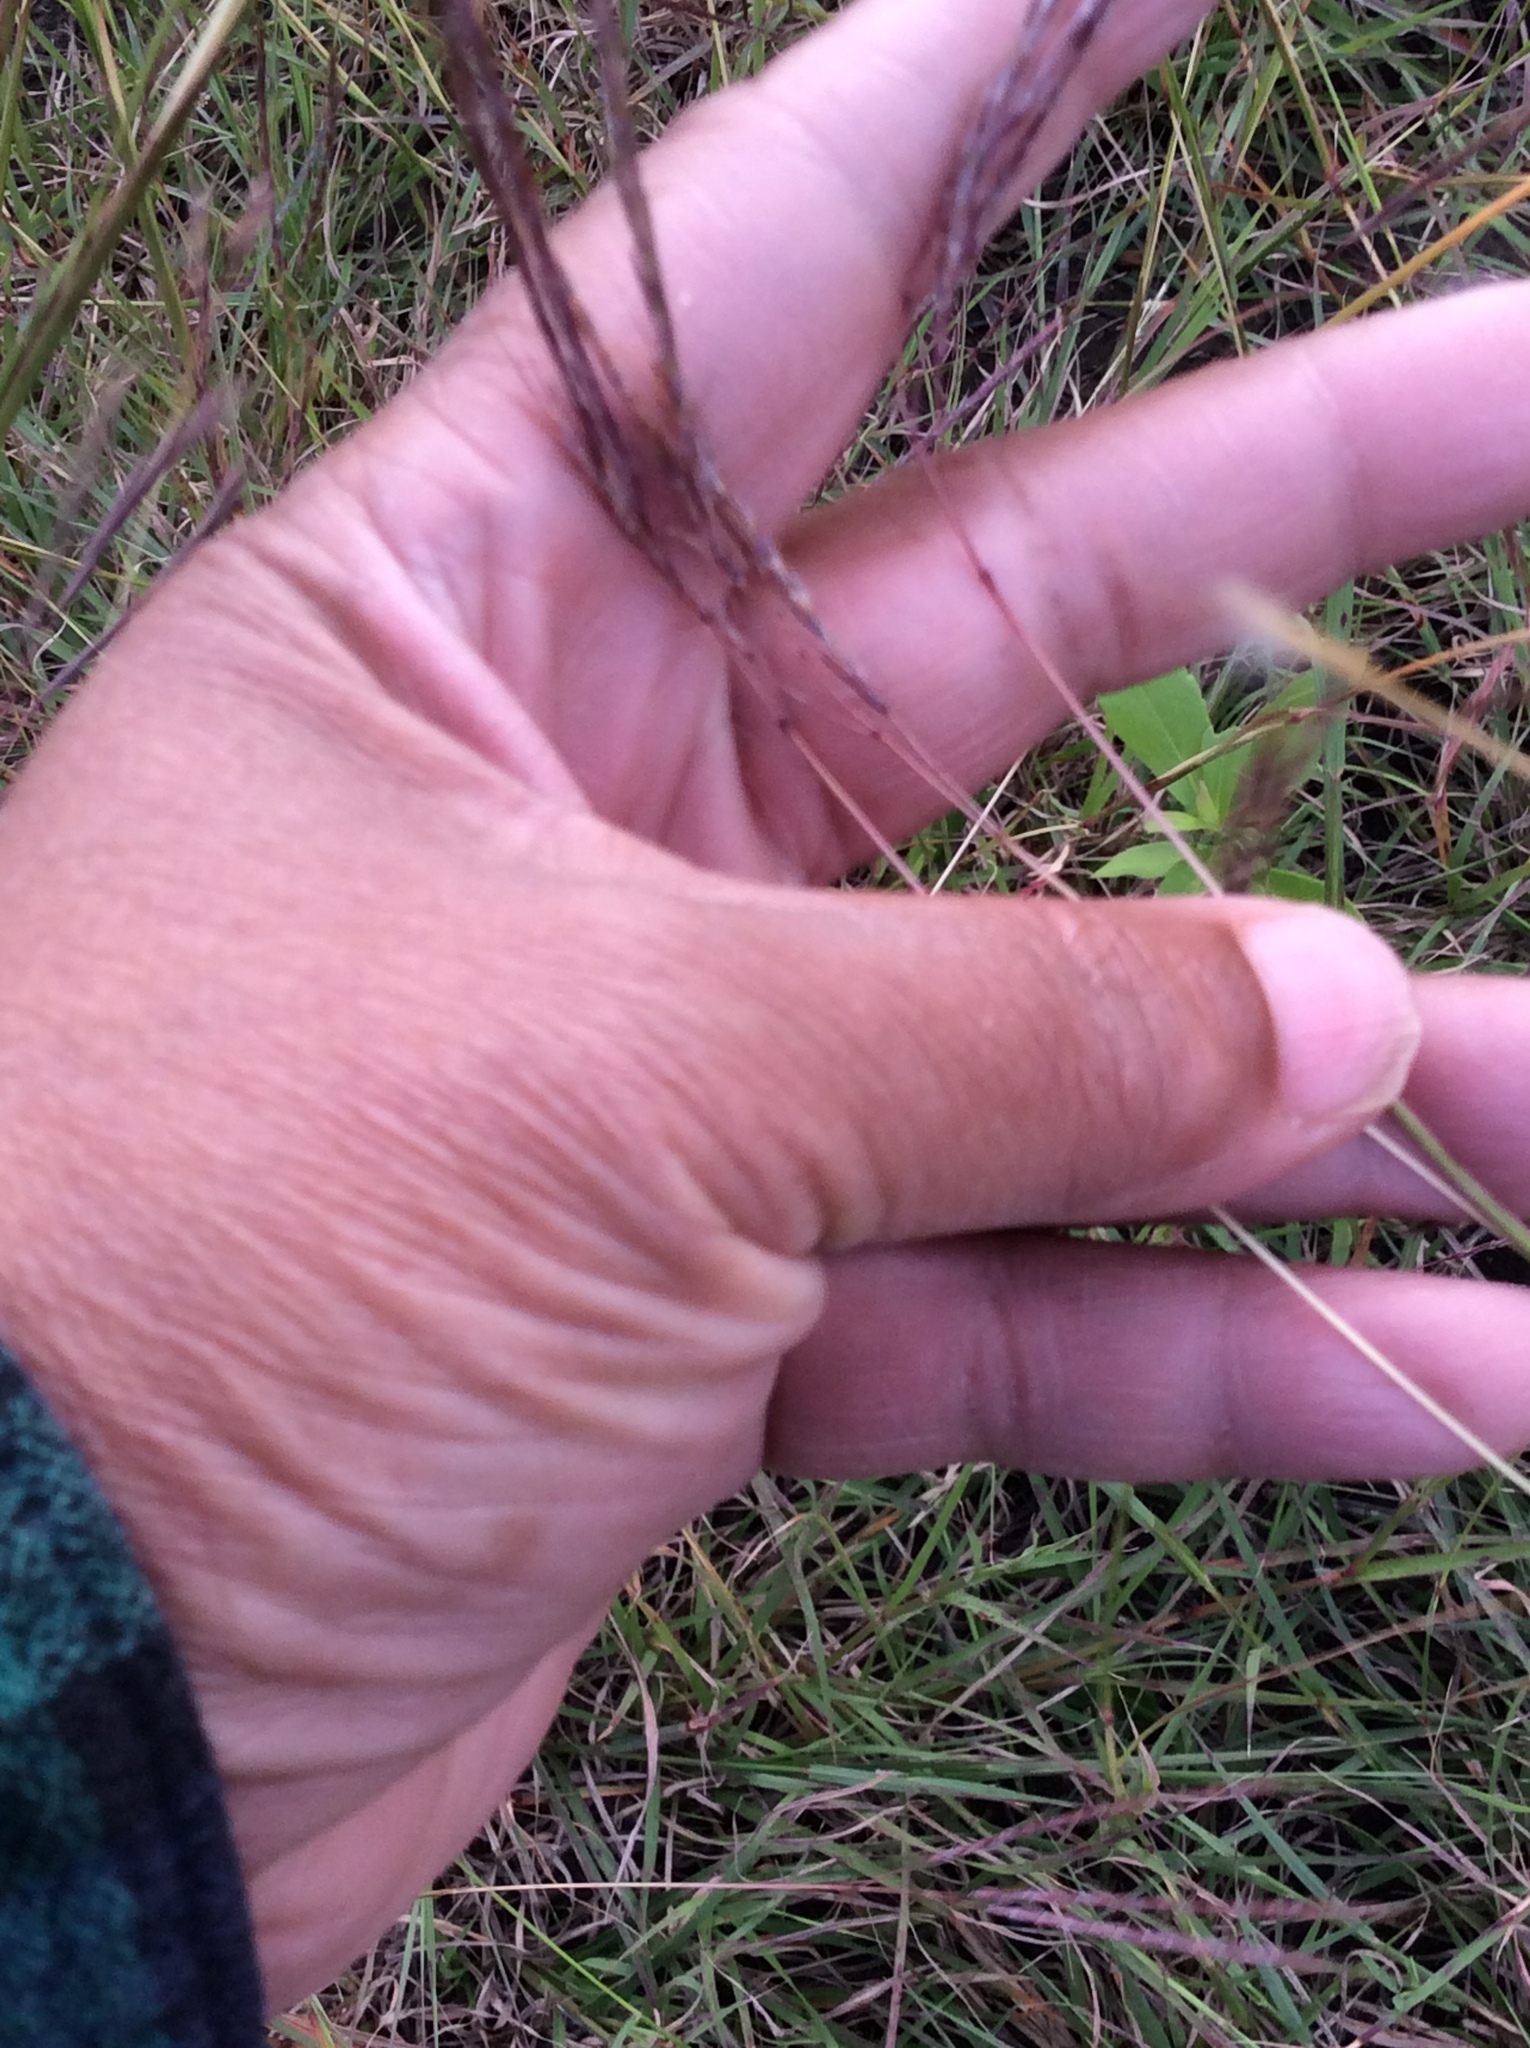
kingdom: Plantae
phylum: Tracheophyta
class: Liliopsida
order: Poales
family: Poaceae
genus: Bothriochloa
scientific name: Bothriochloa ischaemum
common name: Yellow bluestem
